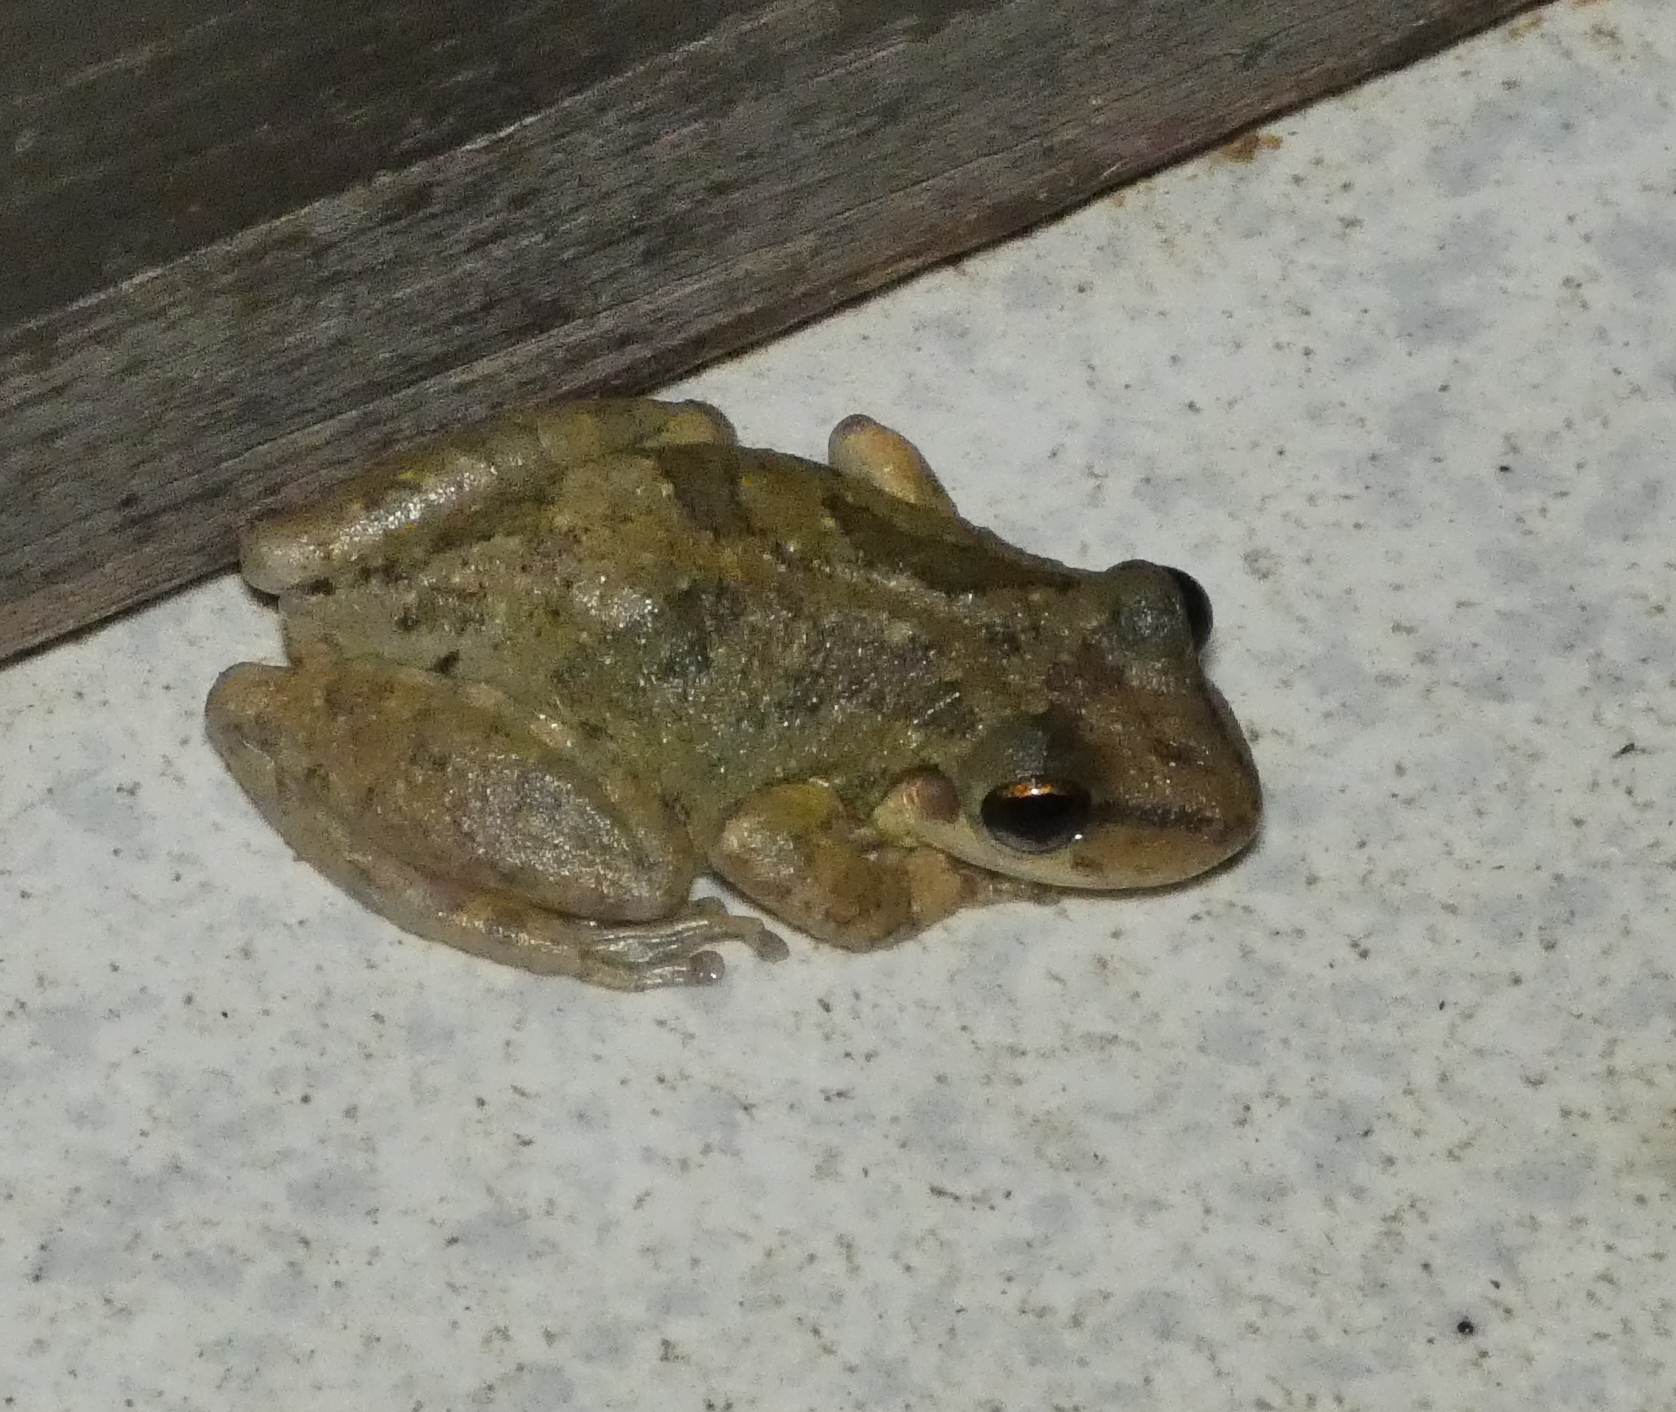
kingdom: Animalia
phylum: Chordata
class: Amphibia
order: Anura
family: Hylidae
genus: Scinax
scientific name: Scinax x-signatus
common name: Venezuela snouted treefrog
